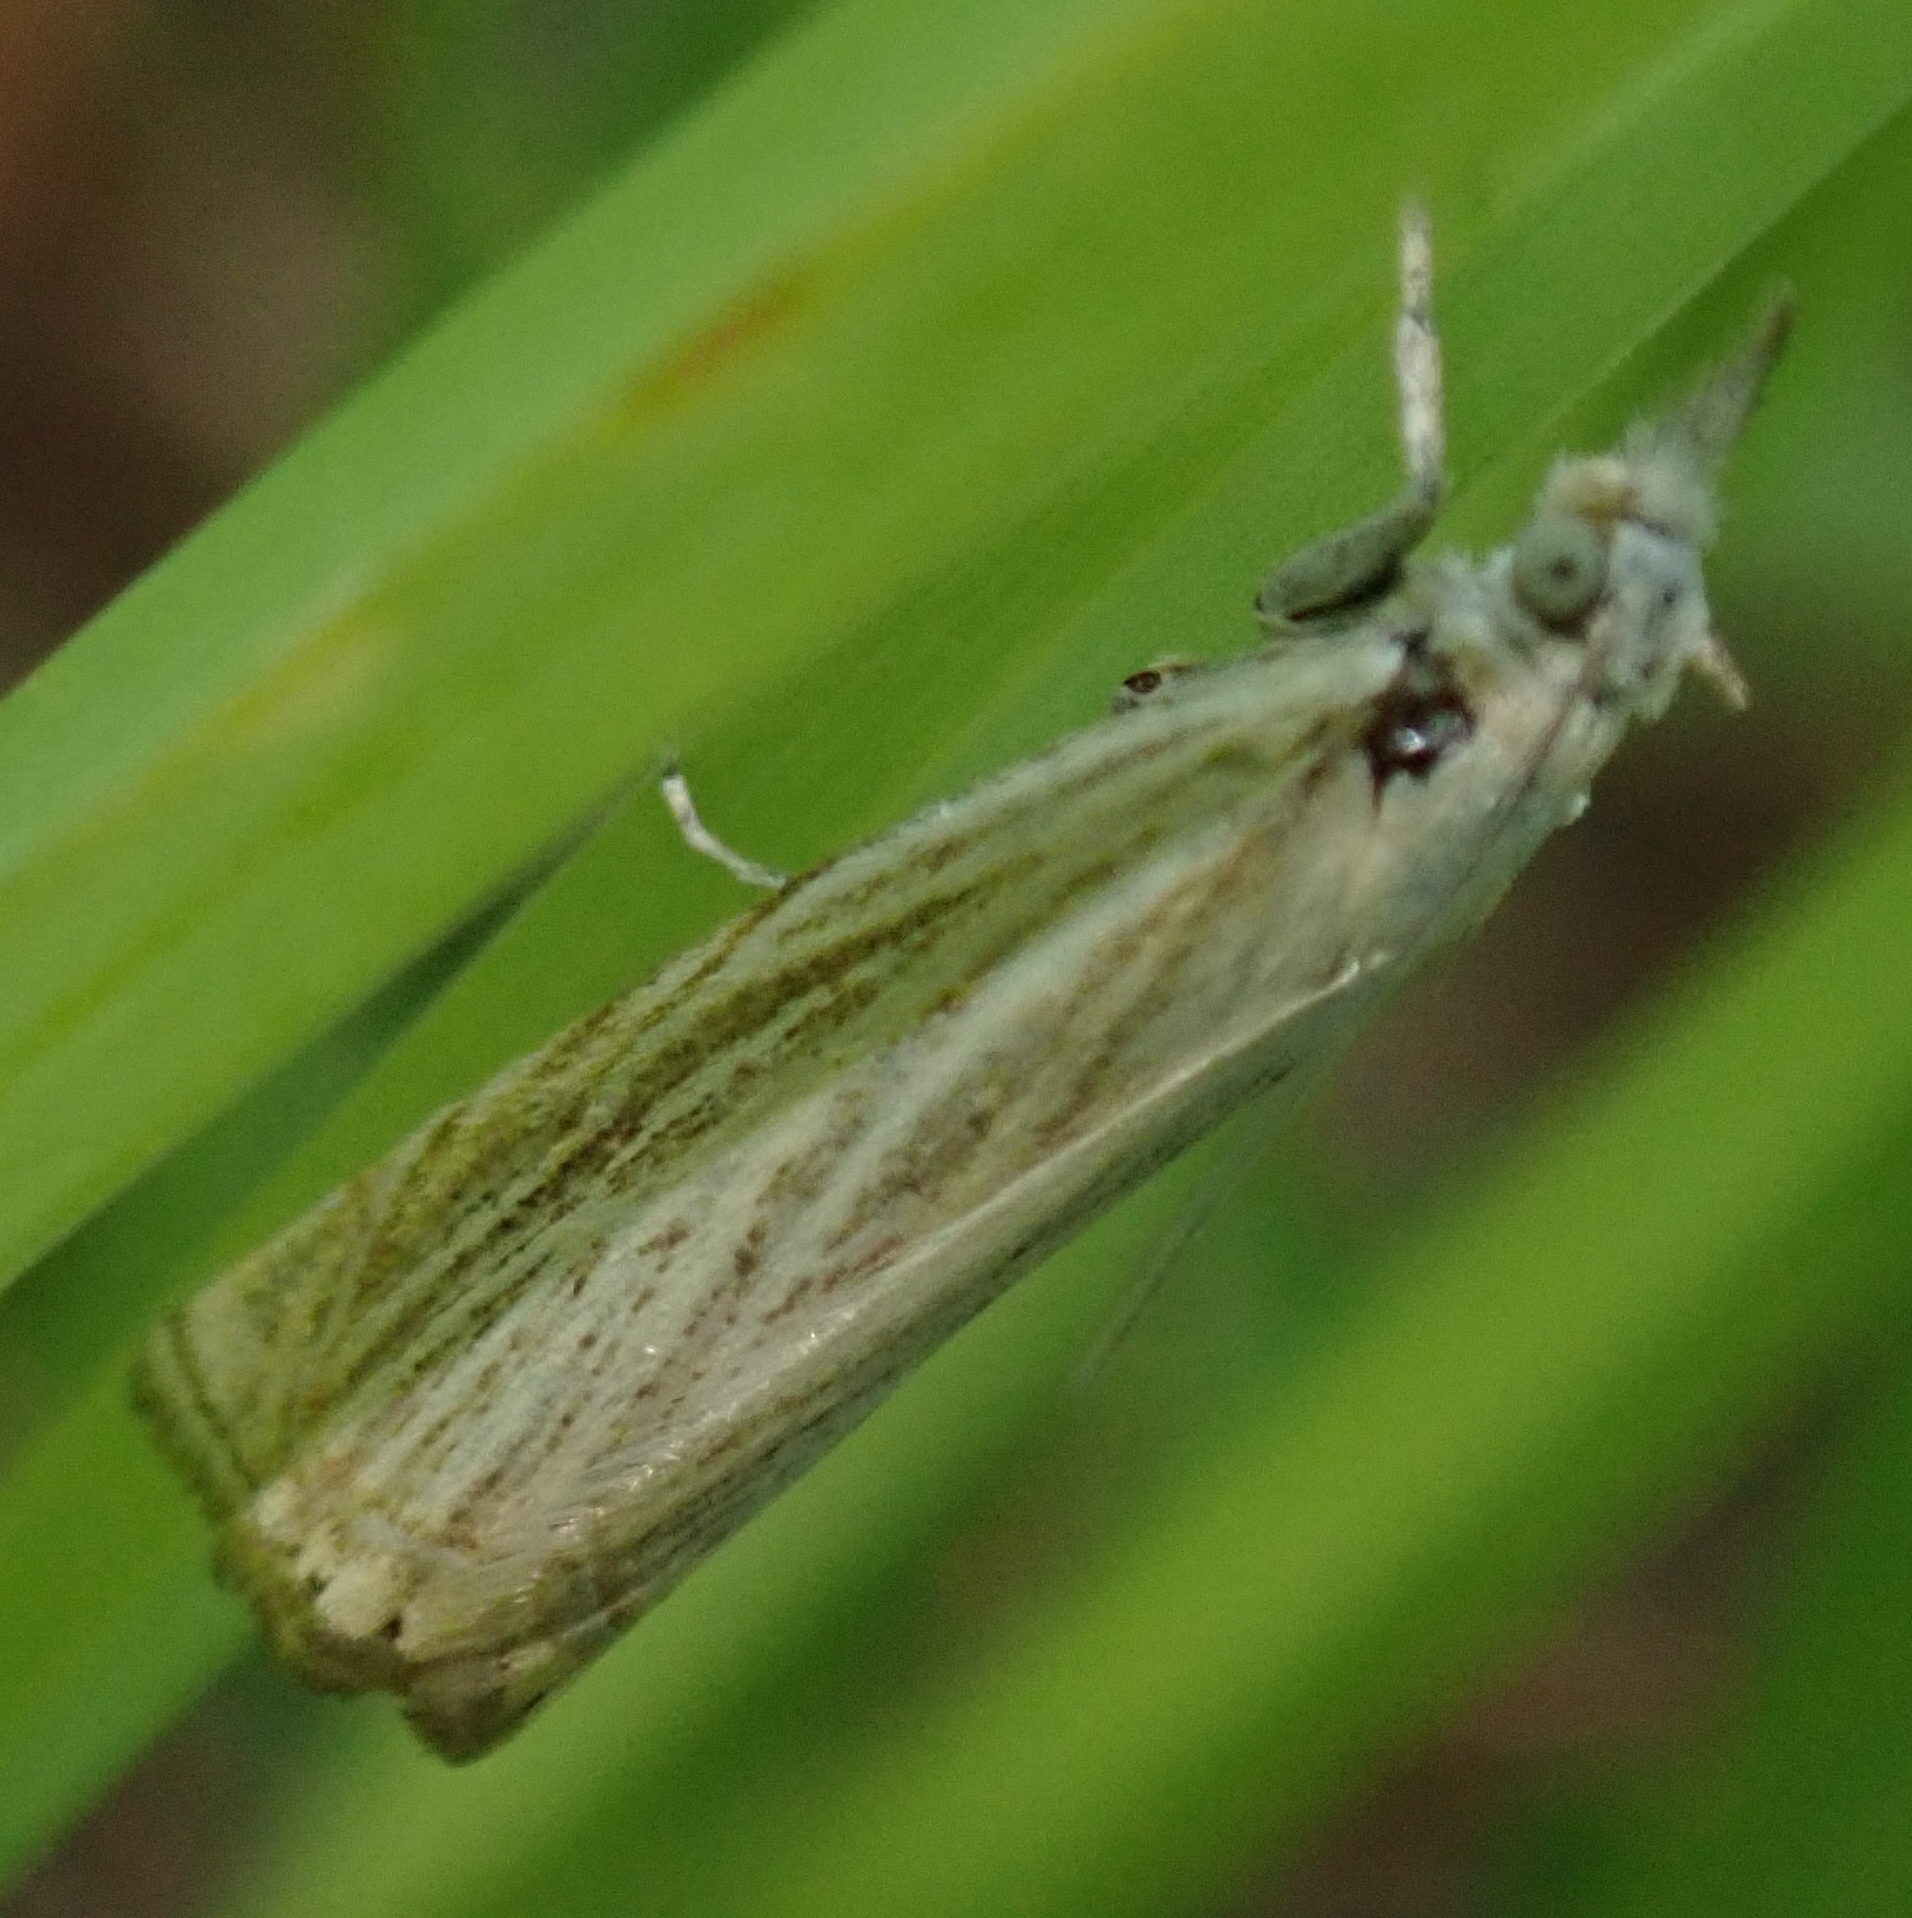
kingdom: Animalia
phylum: Arthropoda
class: Insecta
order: Lepidoptera
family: Crambidae
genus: Chrysoteuchia
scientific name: Chrysoteuchia culmella
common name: Garden grass-veneer
